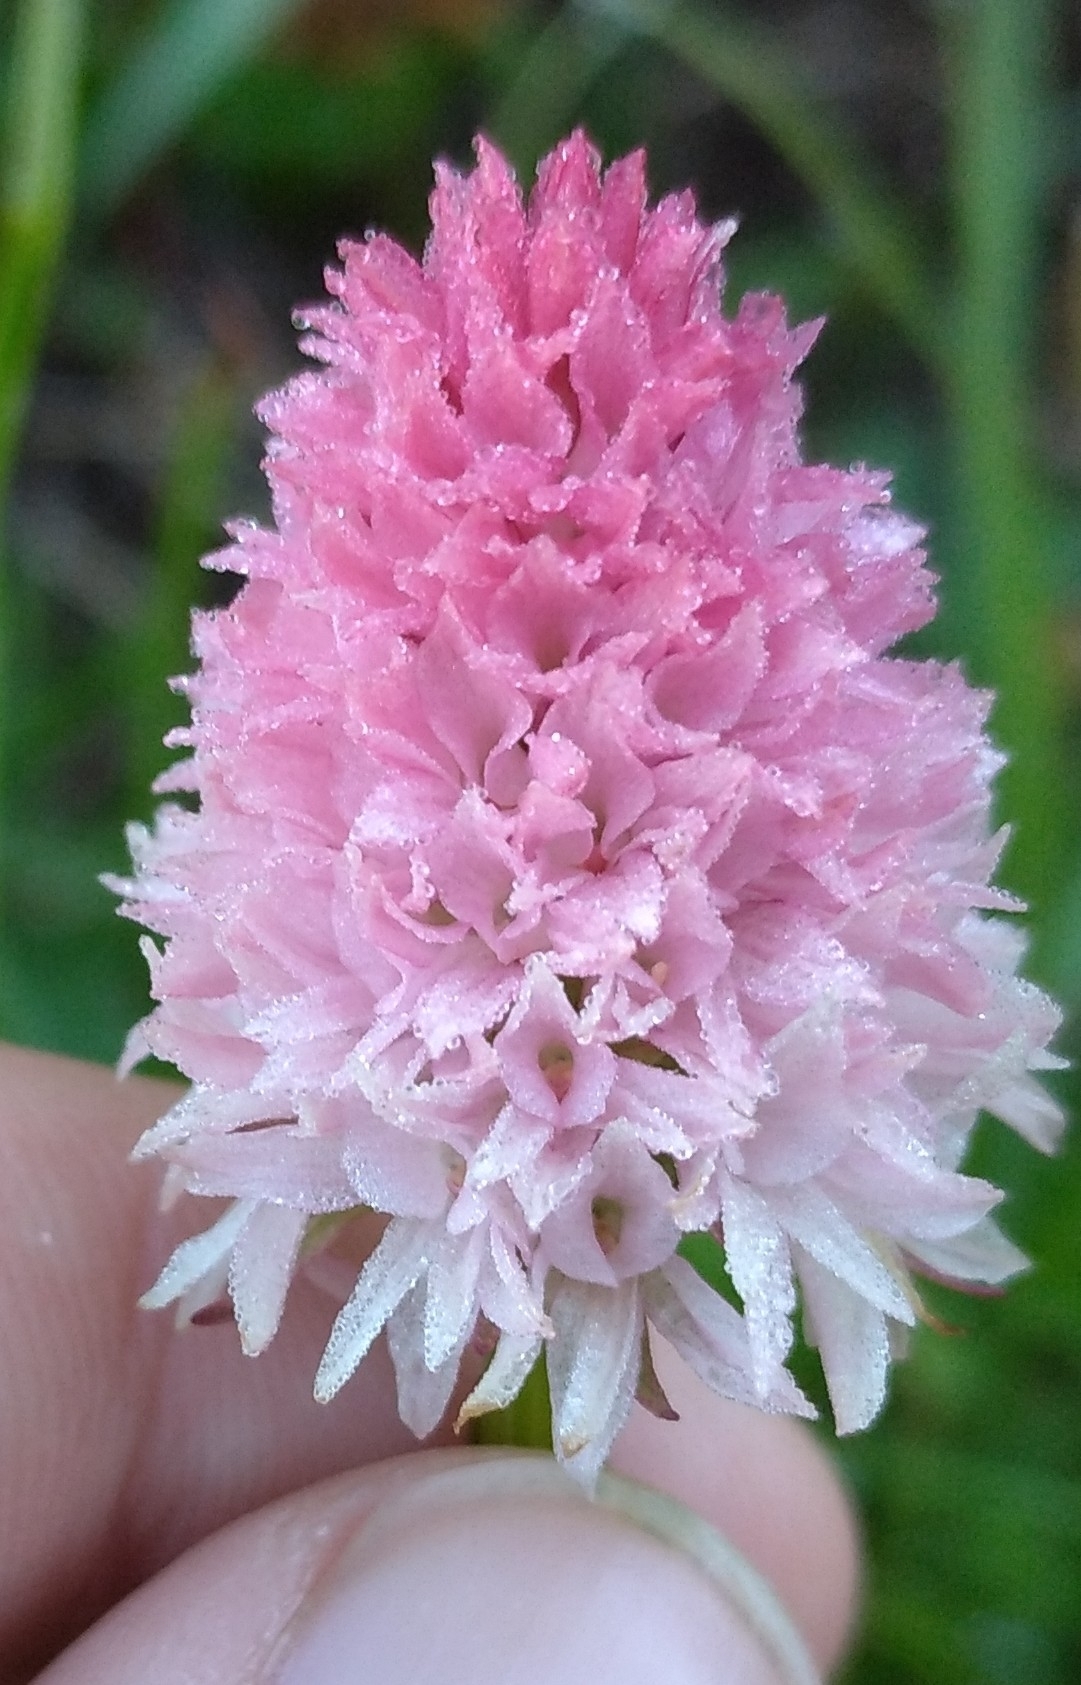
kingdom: Plantae
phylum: Tracheophyta
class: Liliopsida
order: Asparagales
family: Orchidaceae
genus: Gymnadenia
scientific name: Gymnadenia corneliana
